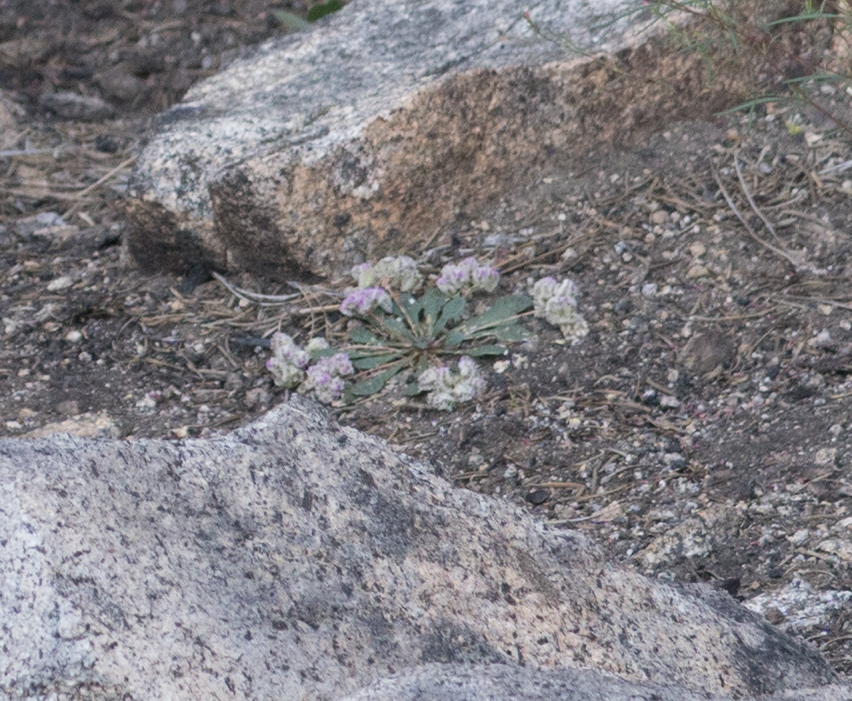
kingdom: Plantae
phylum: Tracheophyta
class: Magnoliopsida
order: Caryophyllales
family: Montiaceae
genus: Calyptridium
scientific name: Calyptridium monospermum
